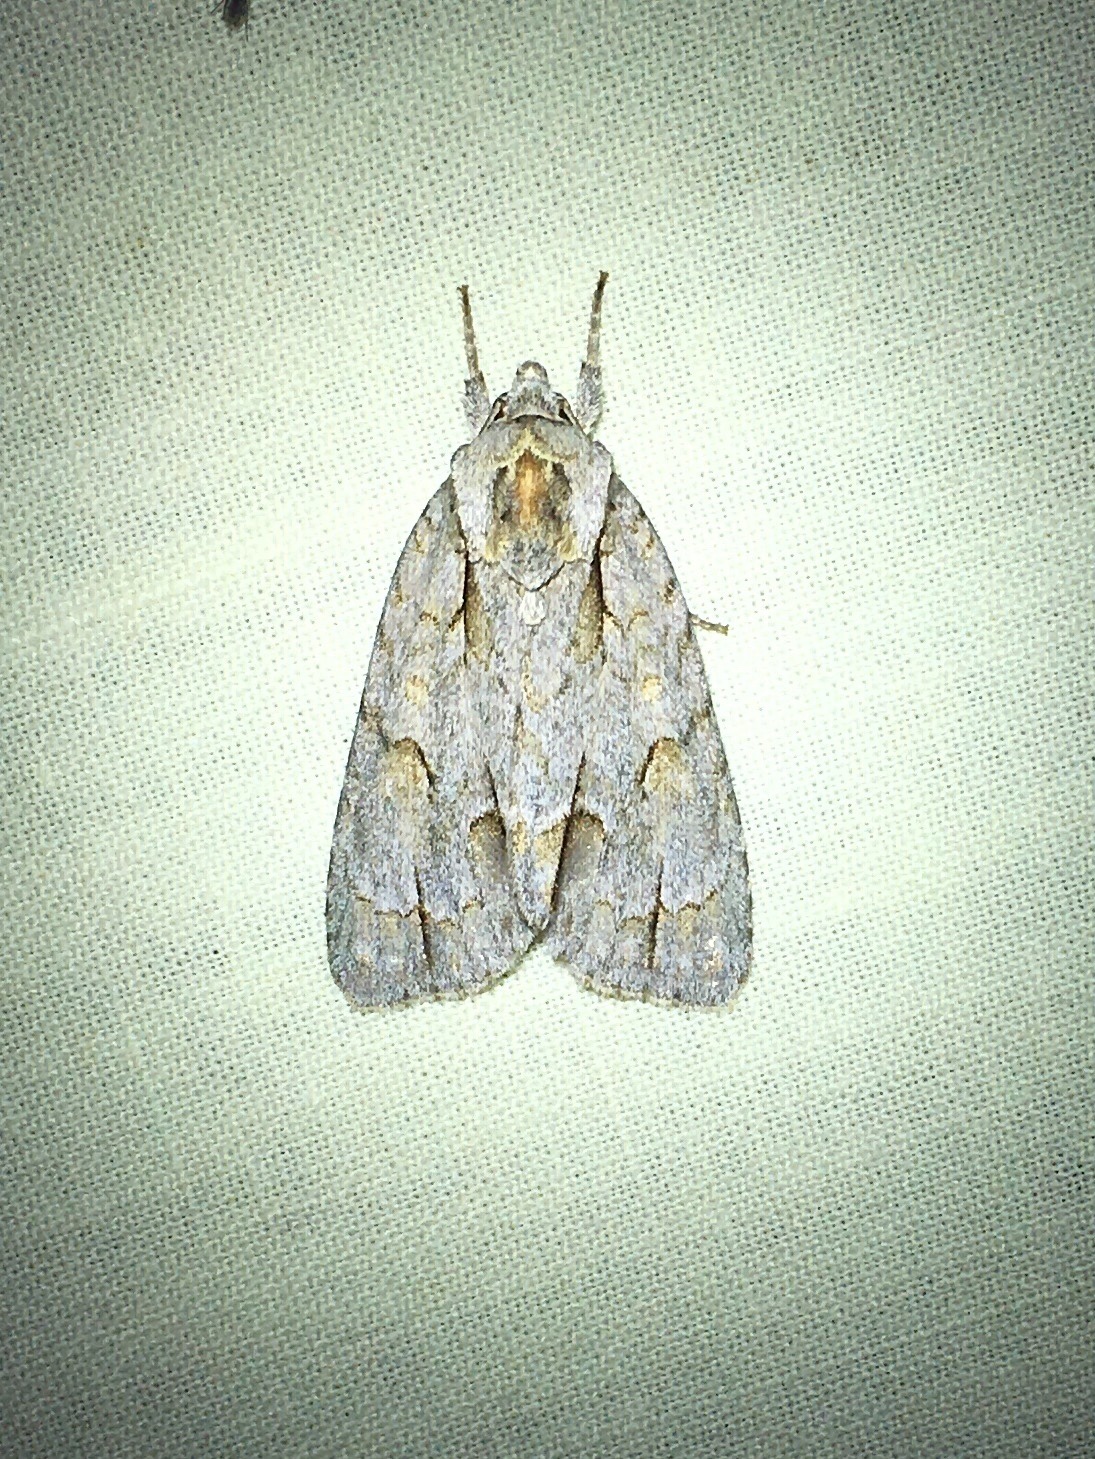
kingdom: Animalia
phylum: Arthropoda
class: Insecta
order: Lepidoptera
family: Noctuidae
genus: Acronicta
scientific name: Acronicta morula
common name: Ochre dagger
